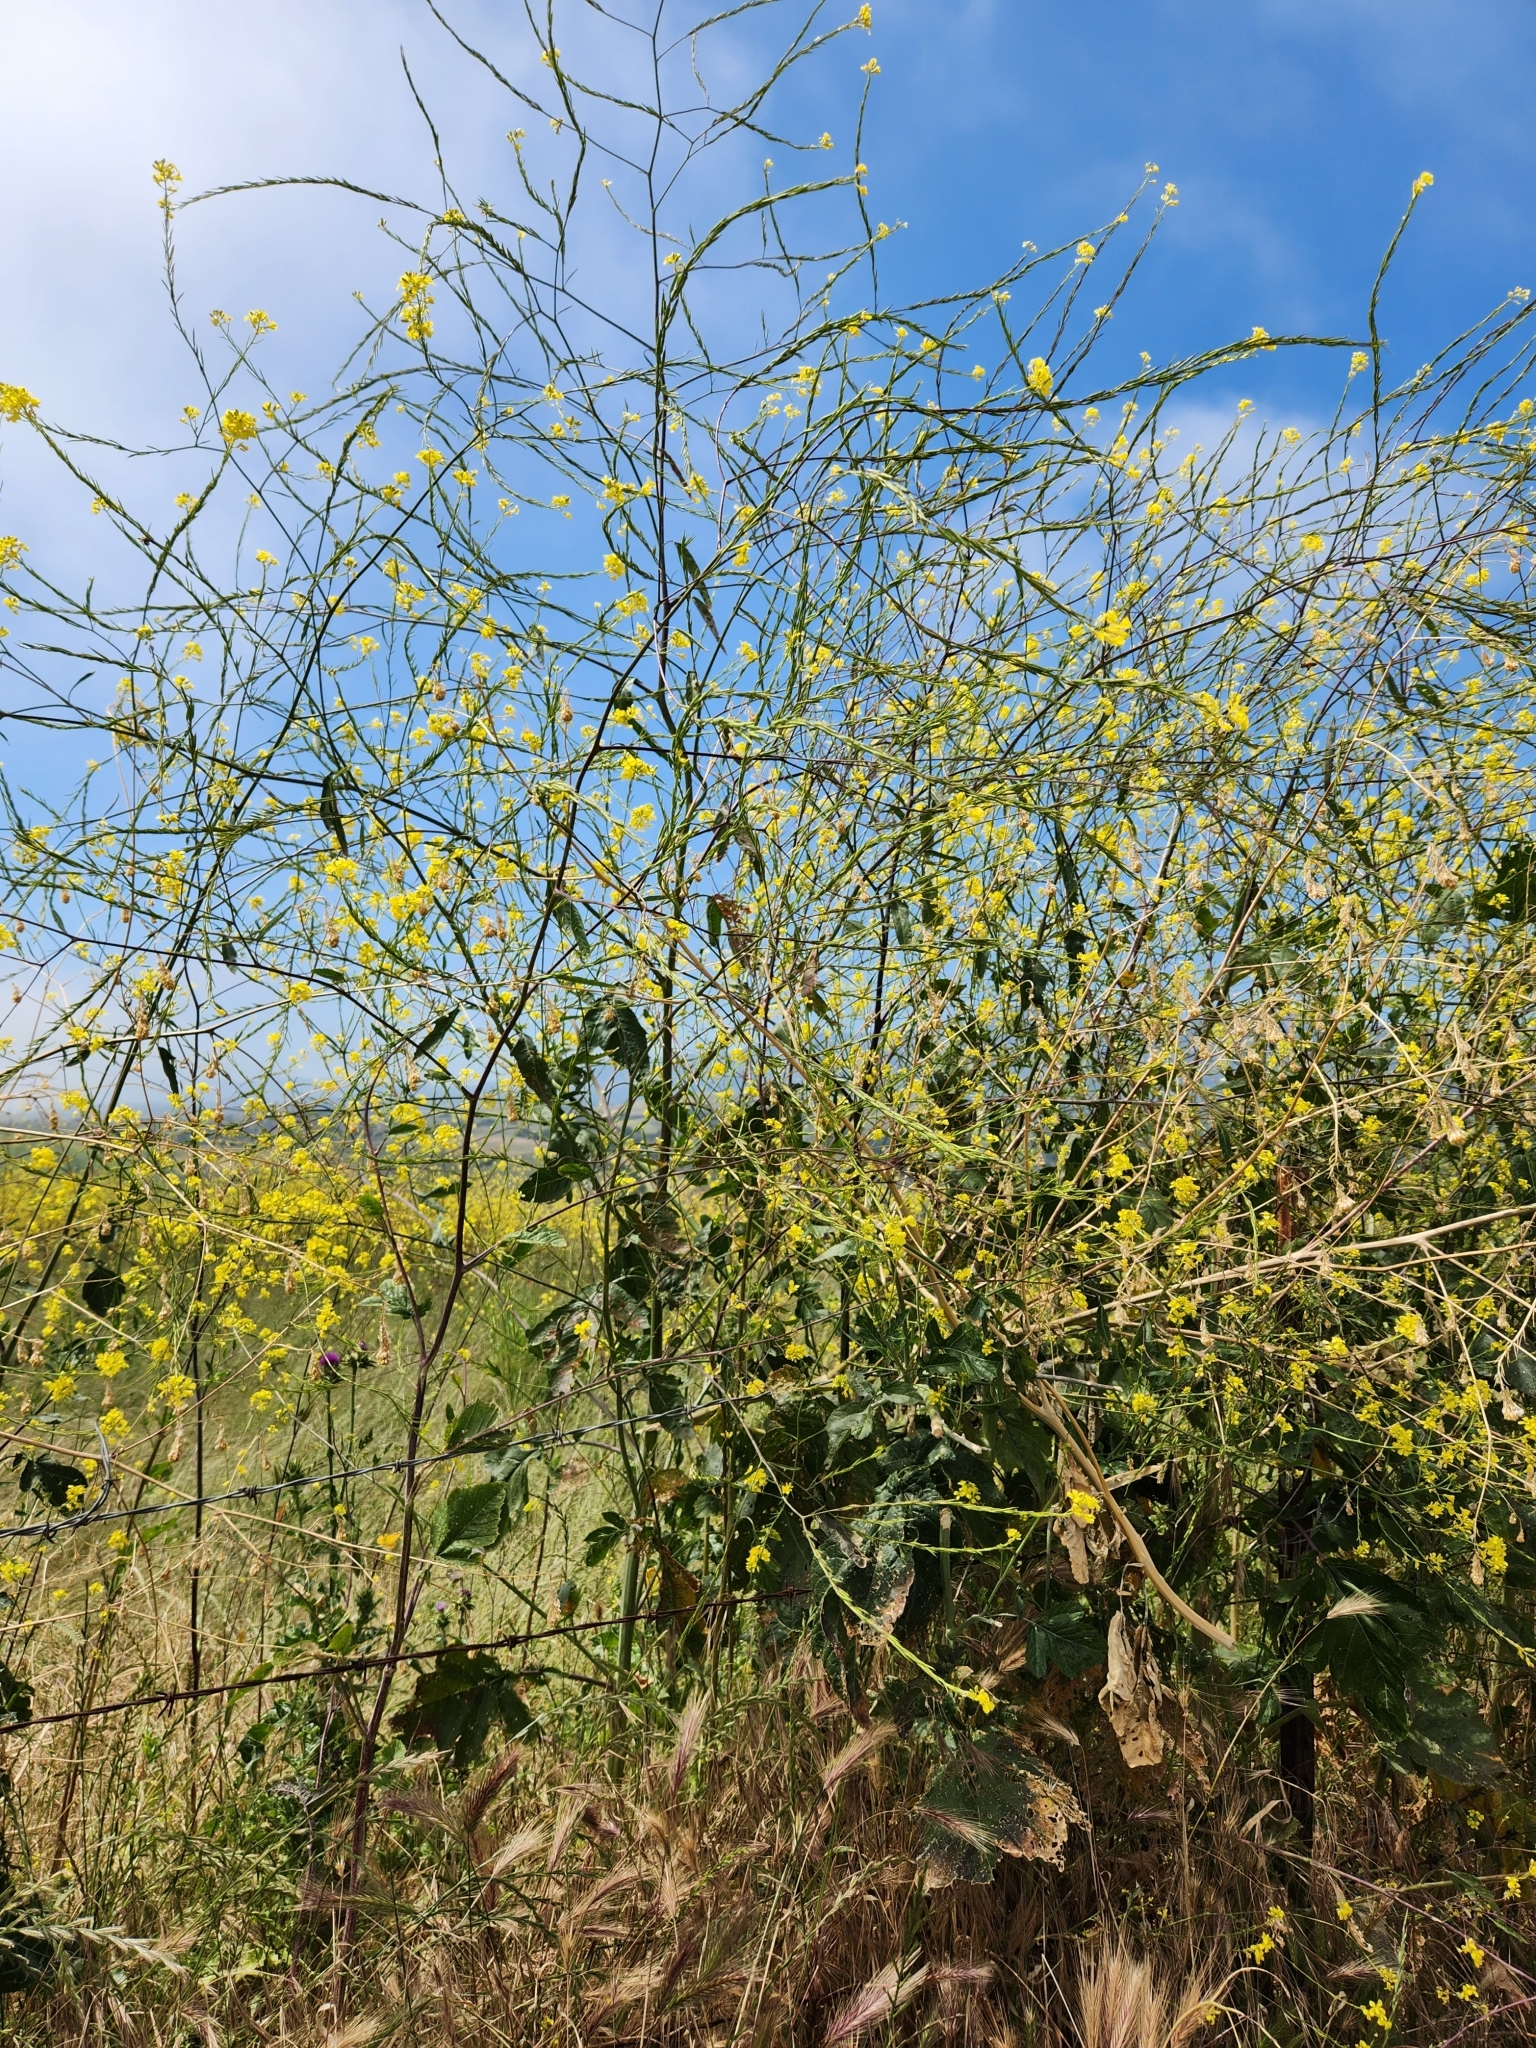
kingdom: Plantae
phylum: Tracheophyta
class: Magnoliopsida
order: Brassicales
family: Brassicaceae
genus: Hirschfeldia
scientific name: Hirschfeldia incana
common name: Hoary mustard
